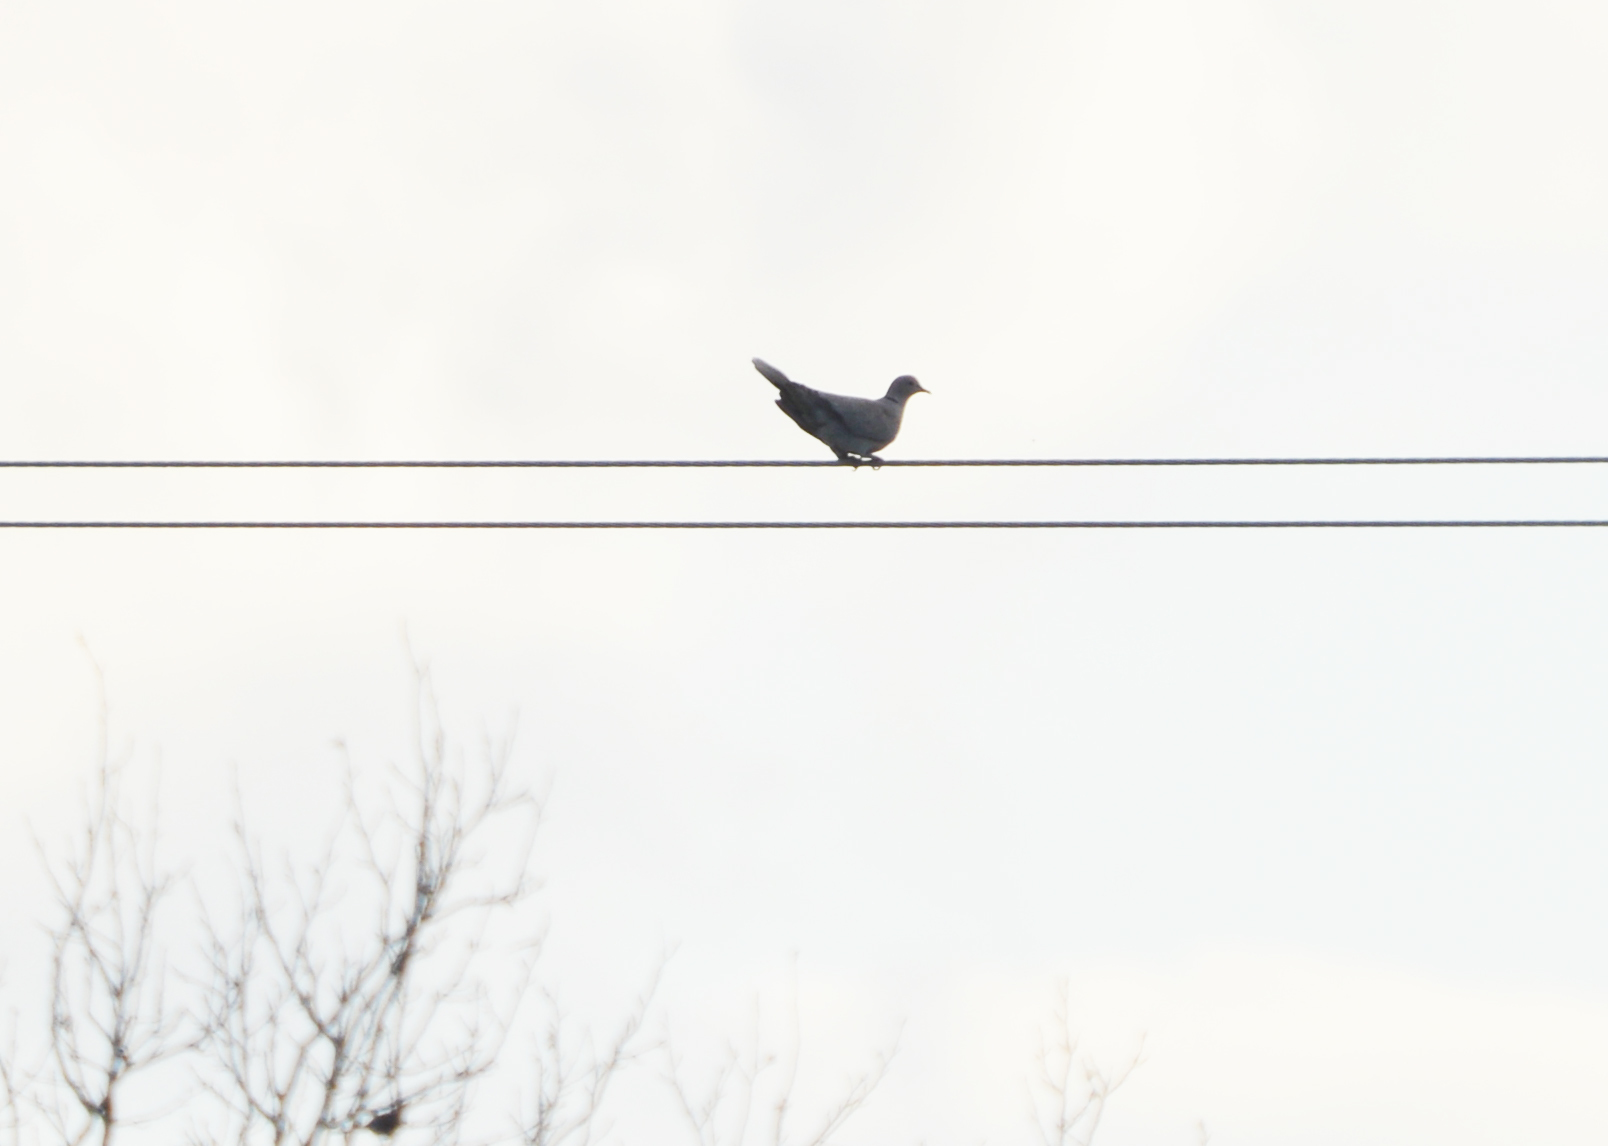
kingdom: Animalia
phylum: Chordata
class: Aves
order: Columbiformes
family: Columbidae
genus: Streptopelia
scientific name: Streptopelia decaocto
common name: Eurasian collared dove
